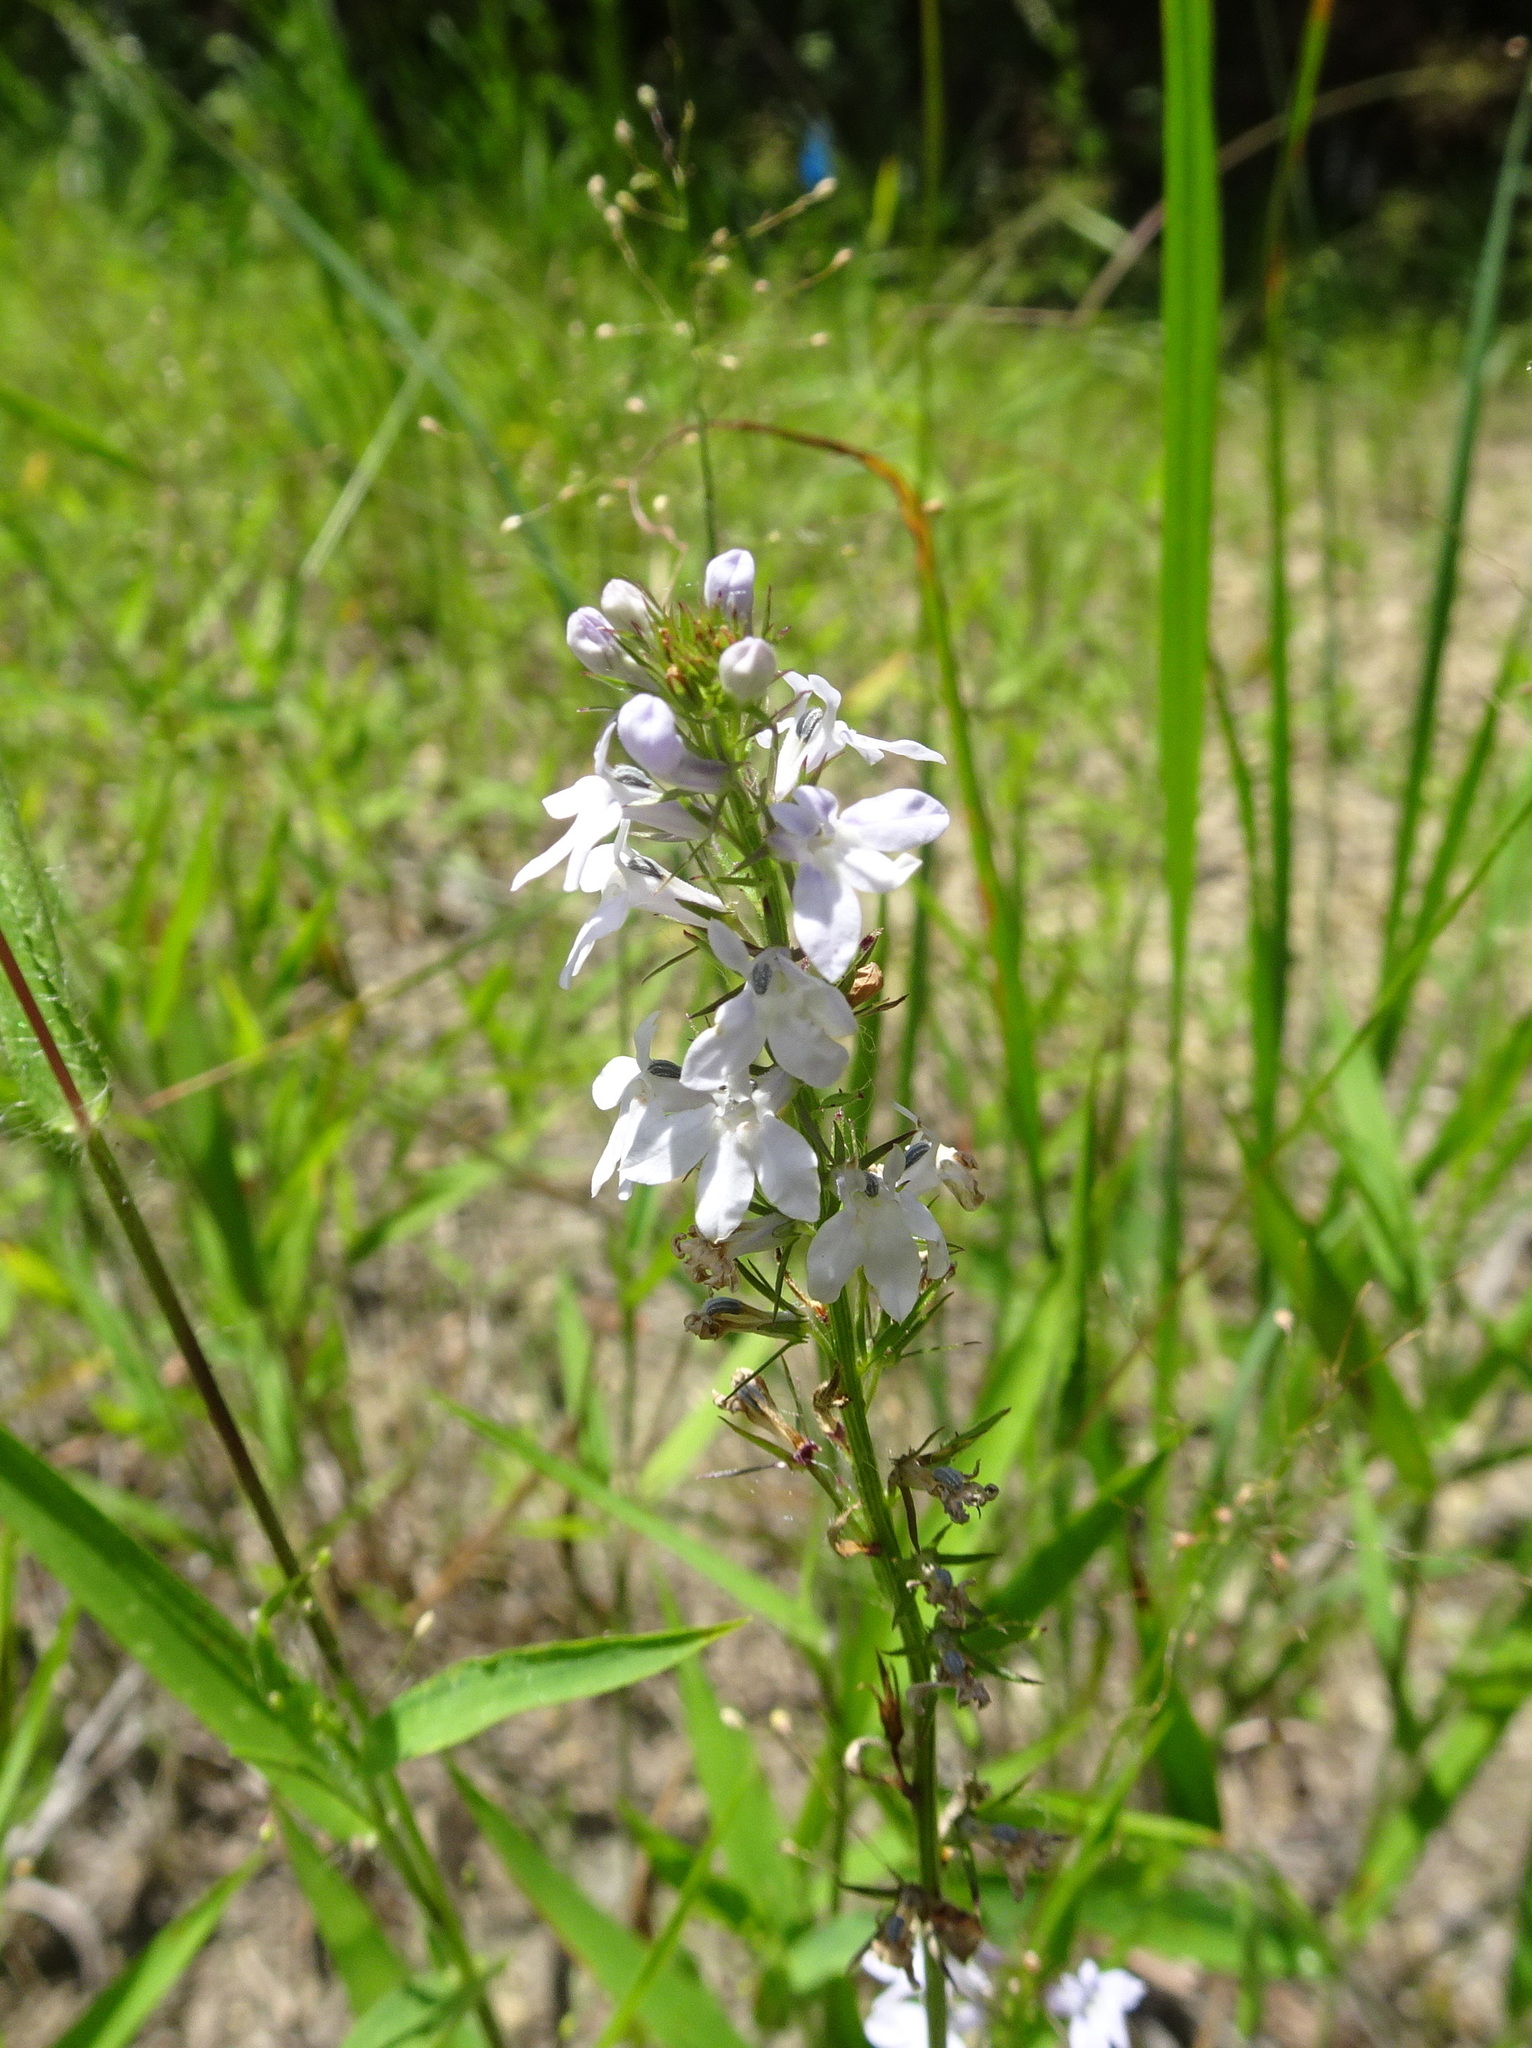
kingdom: Plantae
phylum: Tracheophyta
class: Magnoliopsida
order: Asterales
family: Campanulaceae
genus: Lobelia
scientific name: Lobelia spicata
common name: Pale-spike lobelia
